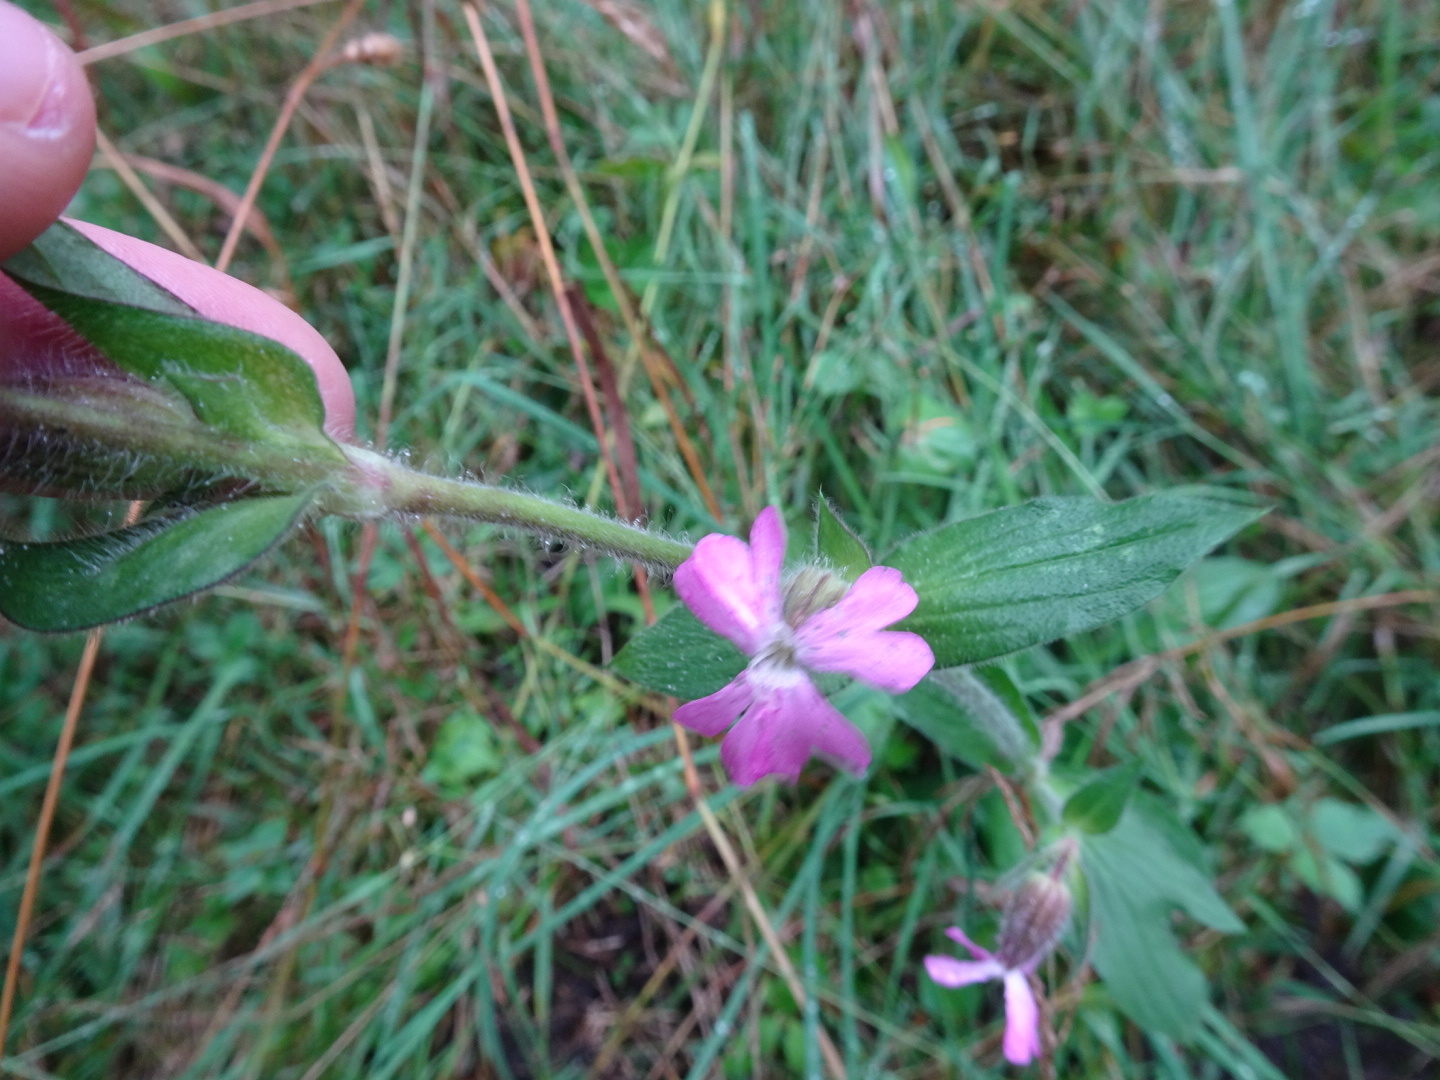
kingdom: Plantae
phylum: Tracheophyta
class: Magnoliopsida
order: Caryophyllales
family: Caryophyllaceae
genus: Silene
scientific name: Silene dioica
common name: Red campion
